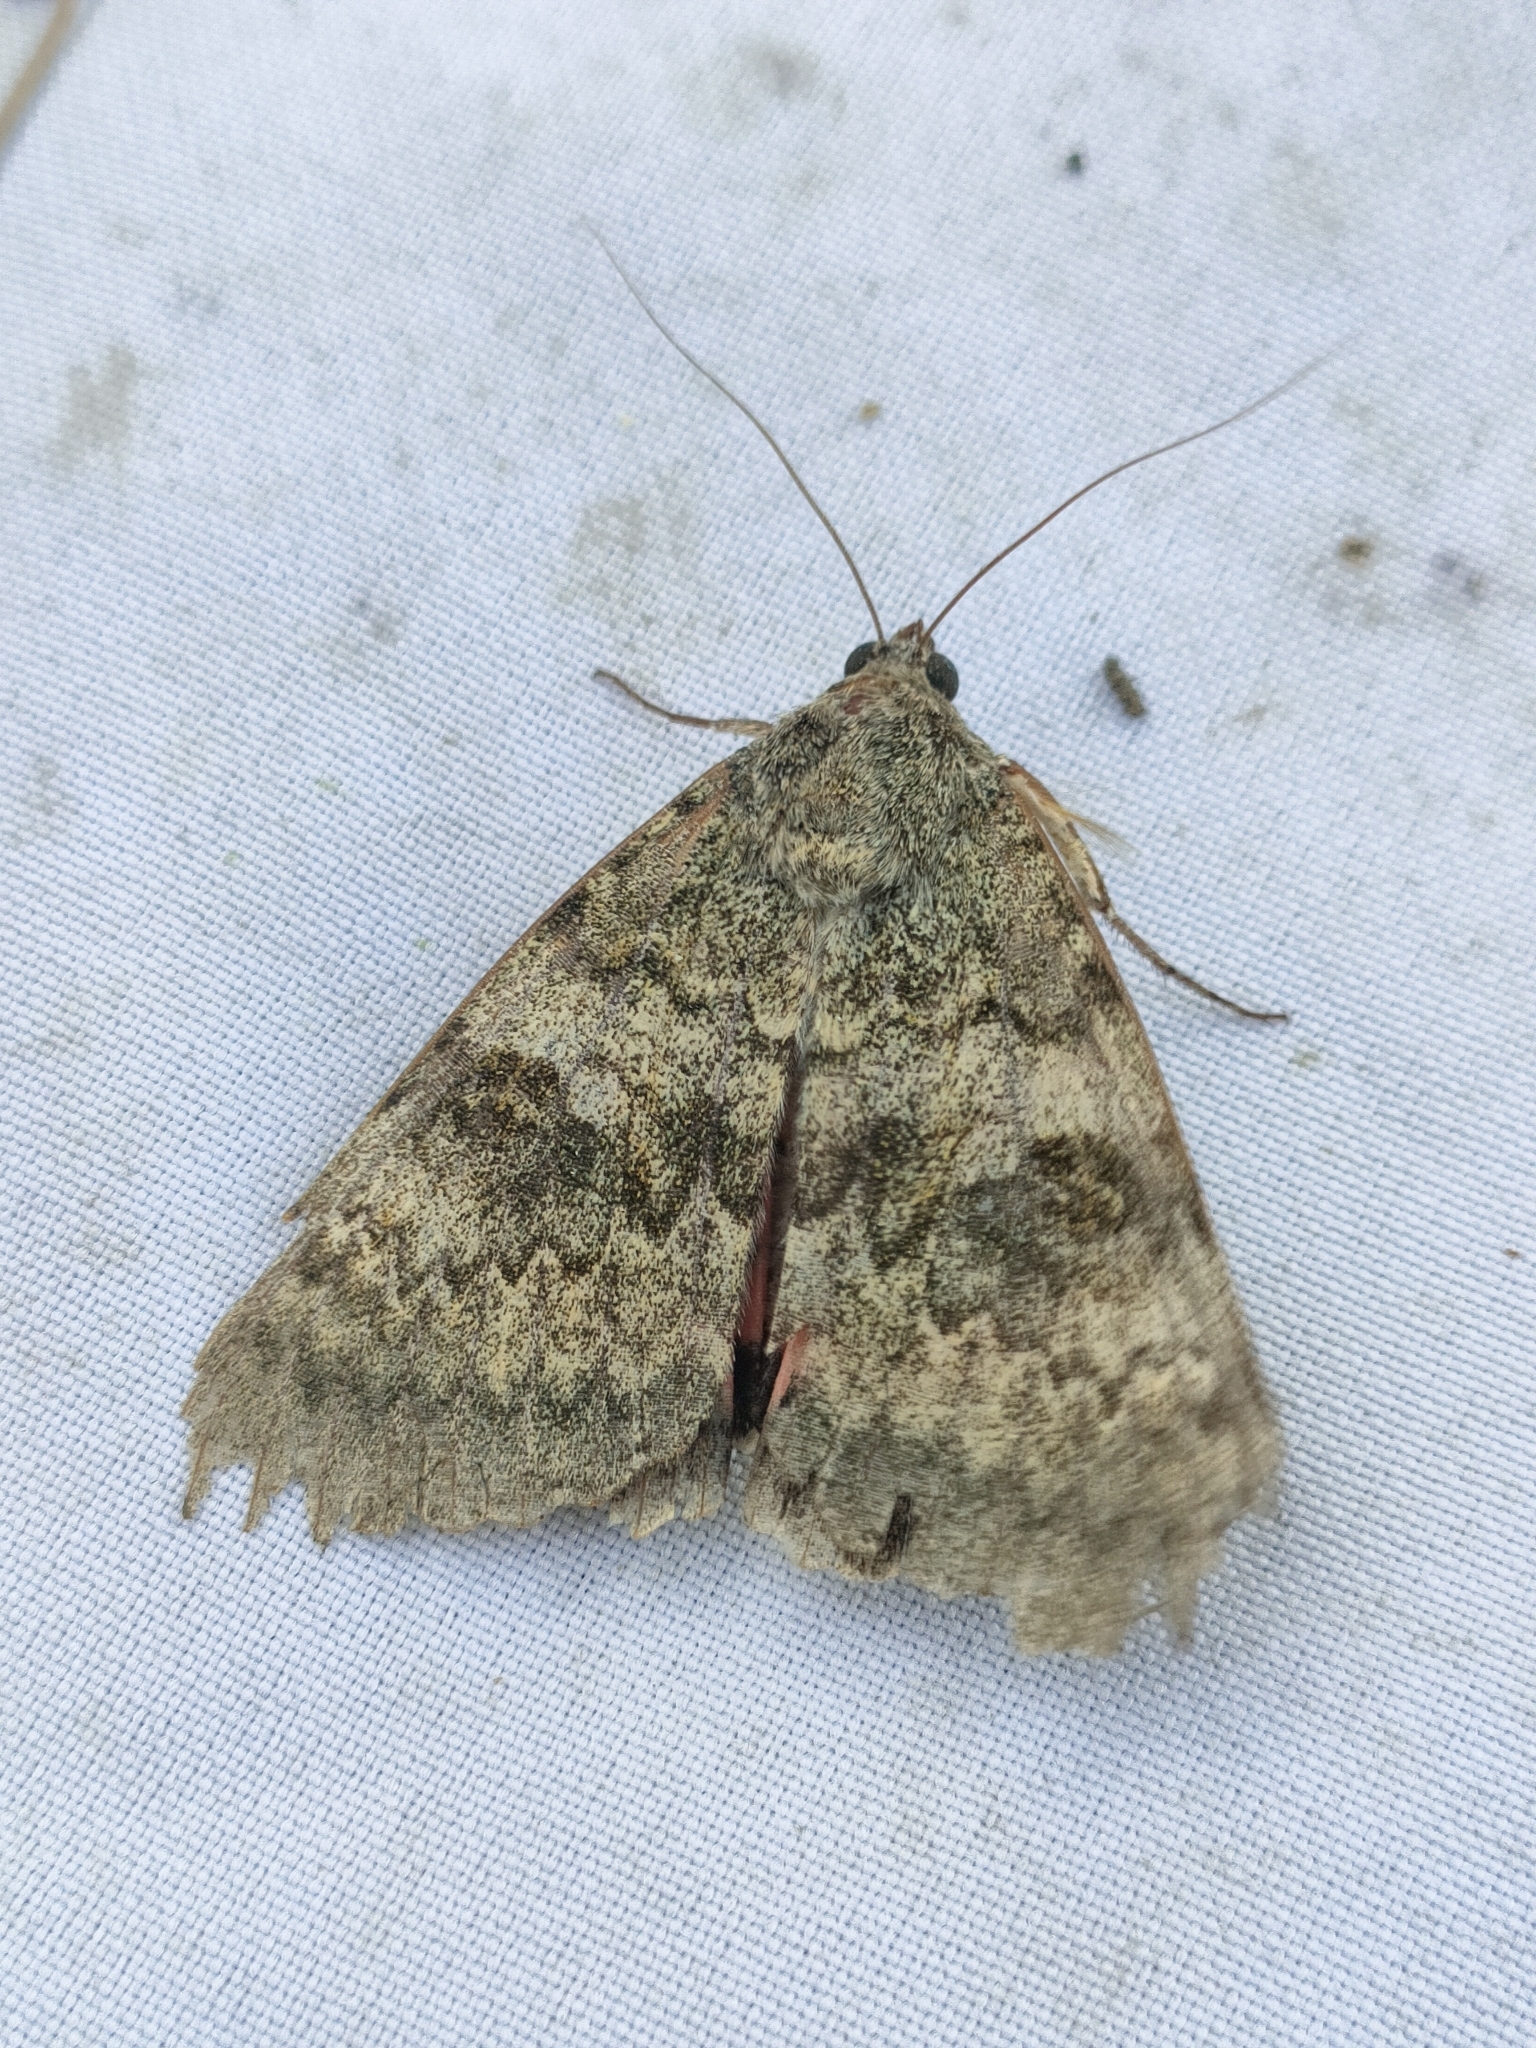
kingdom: Animalia
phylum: Arthropoda
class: Insecta
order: Lepidoptera
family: Erebidae
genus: Catocala
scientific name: Catocala elocata
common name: French red underwing
